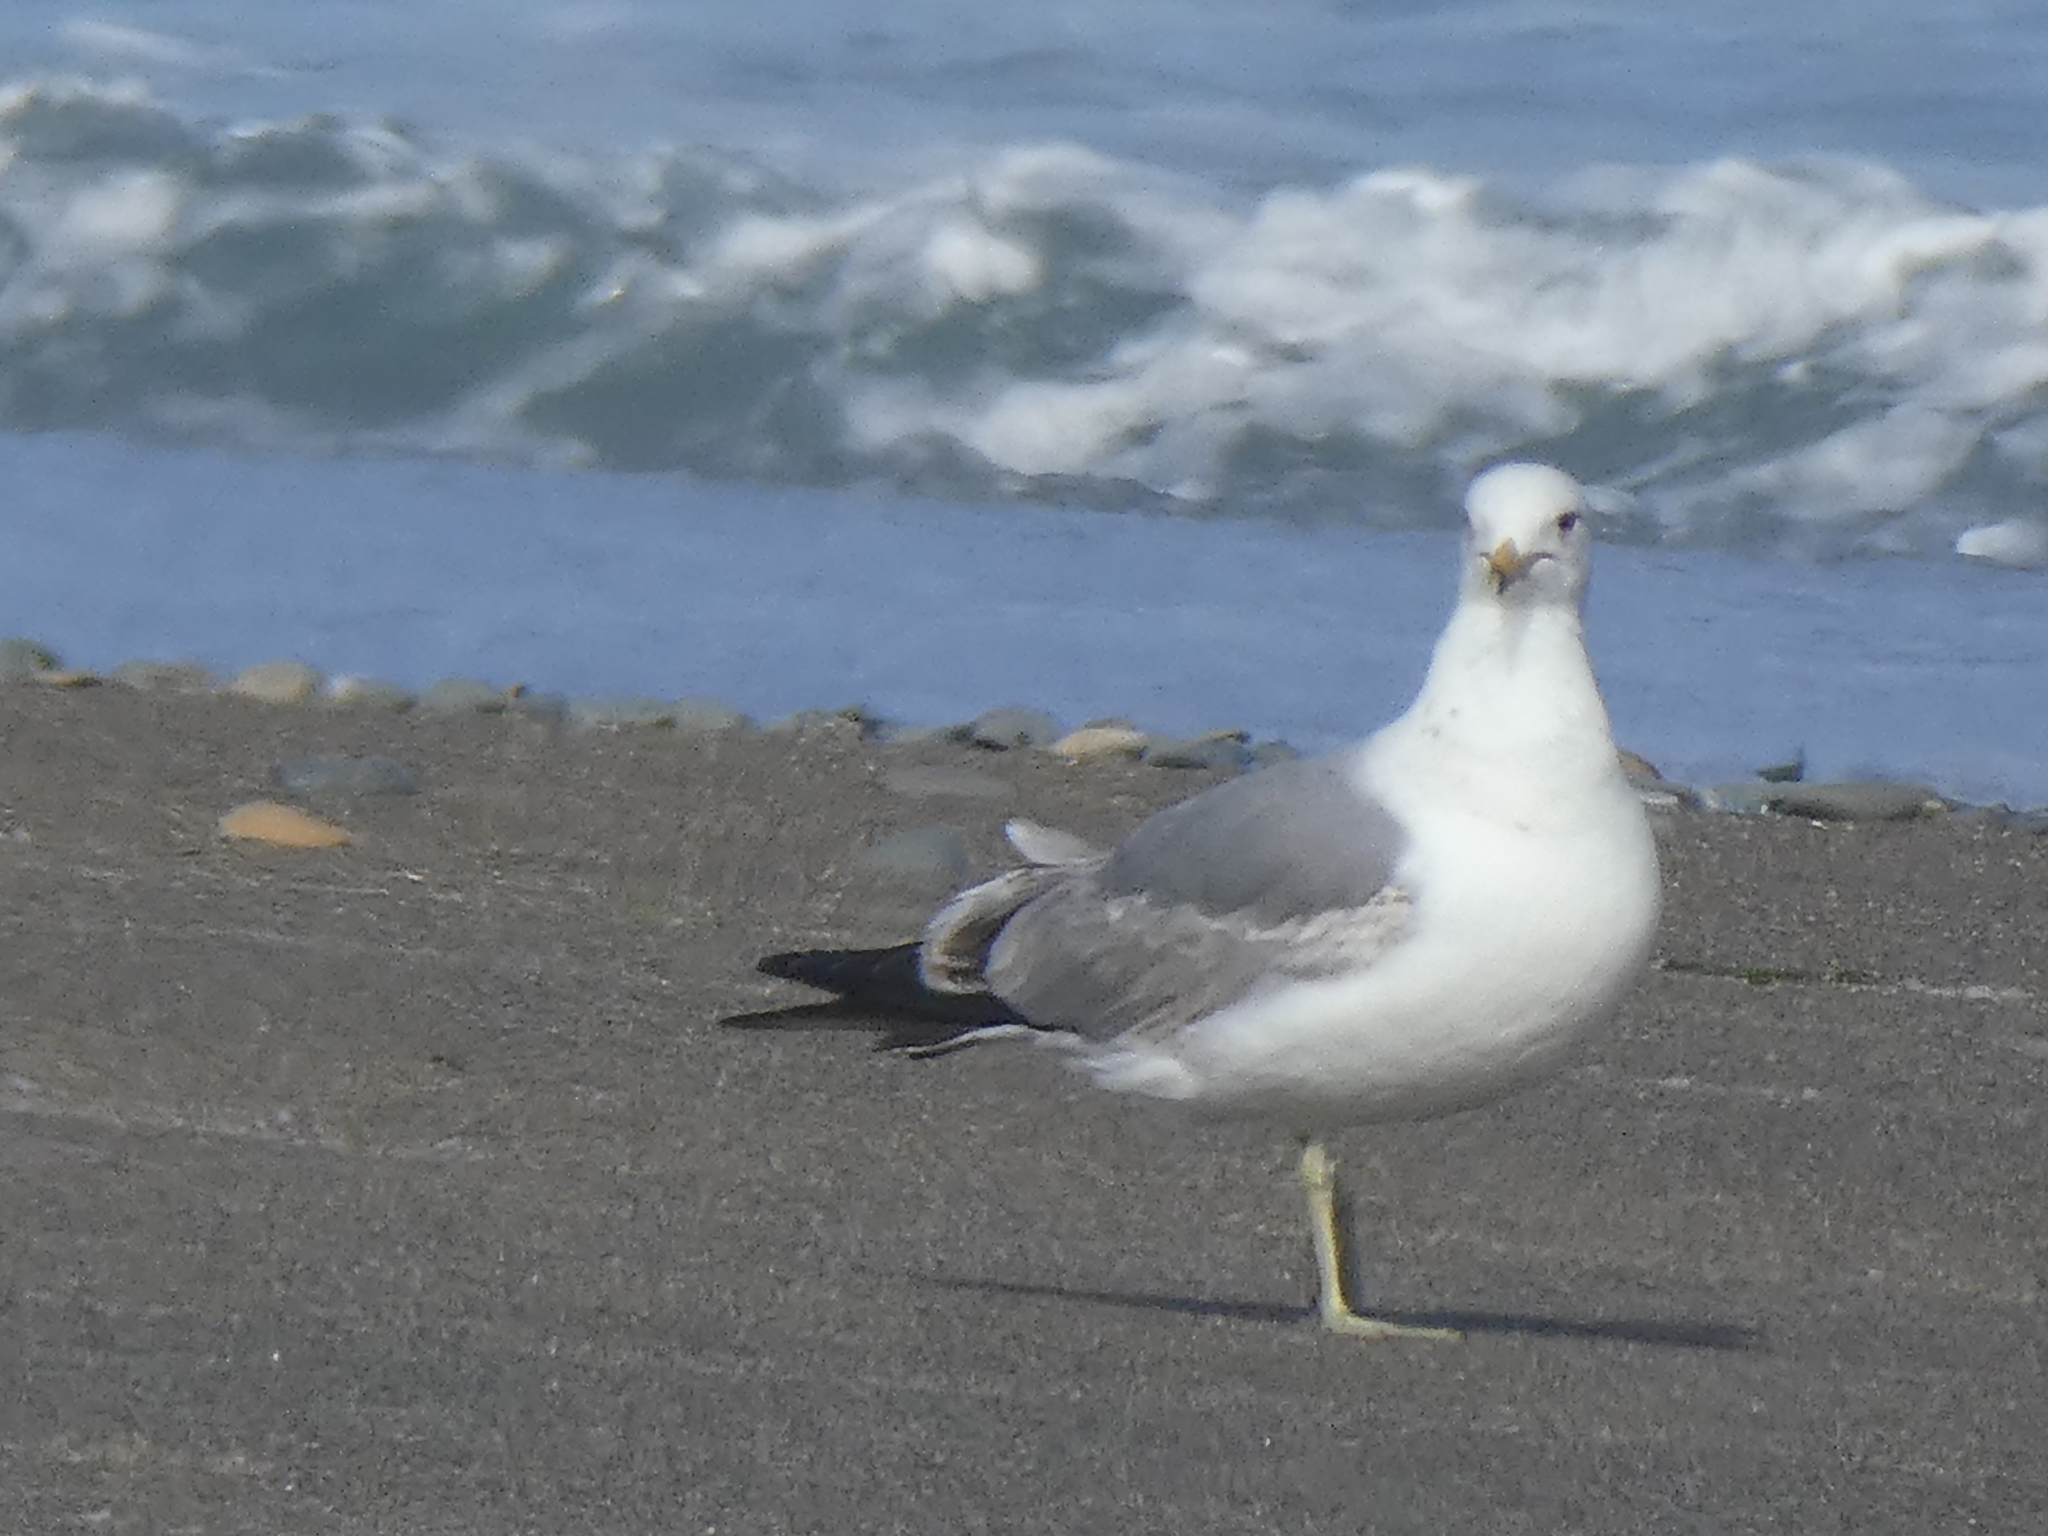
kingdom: Animalia
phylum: Chordata
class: Aves
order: Charadriiformes
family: Laridae
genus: Larus
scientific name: Larus californicus
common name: California gull
